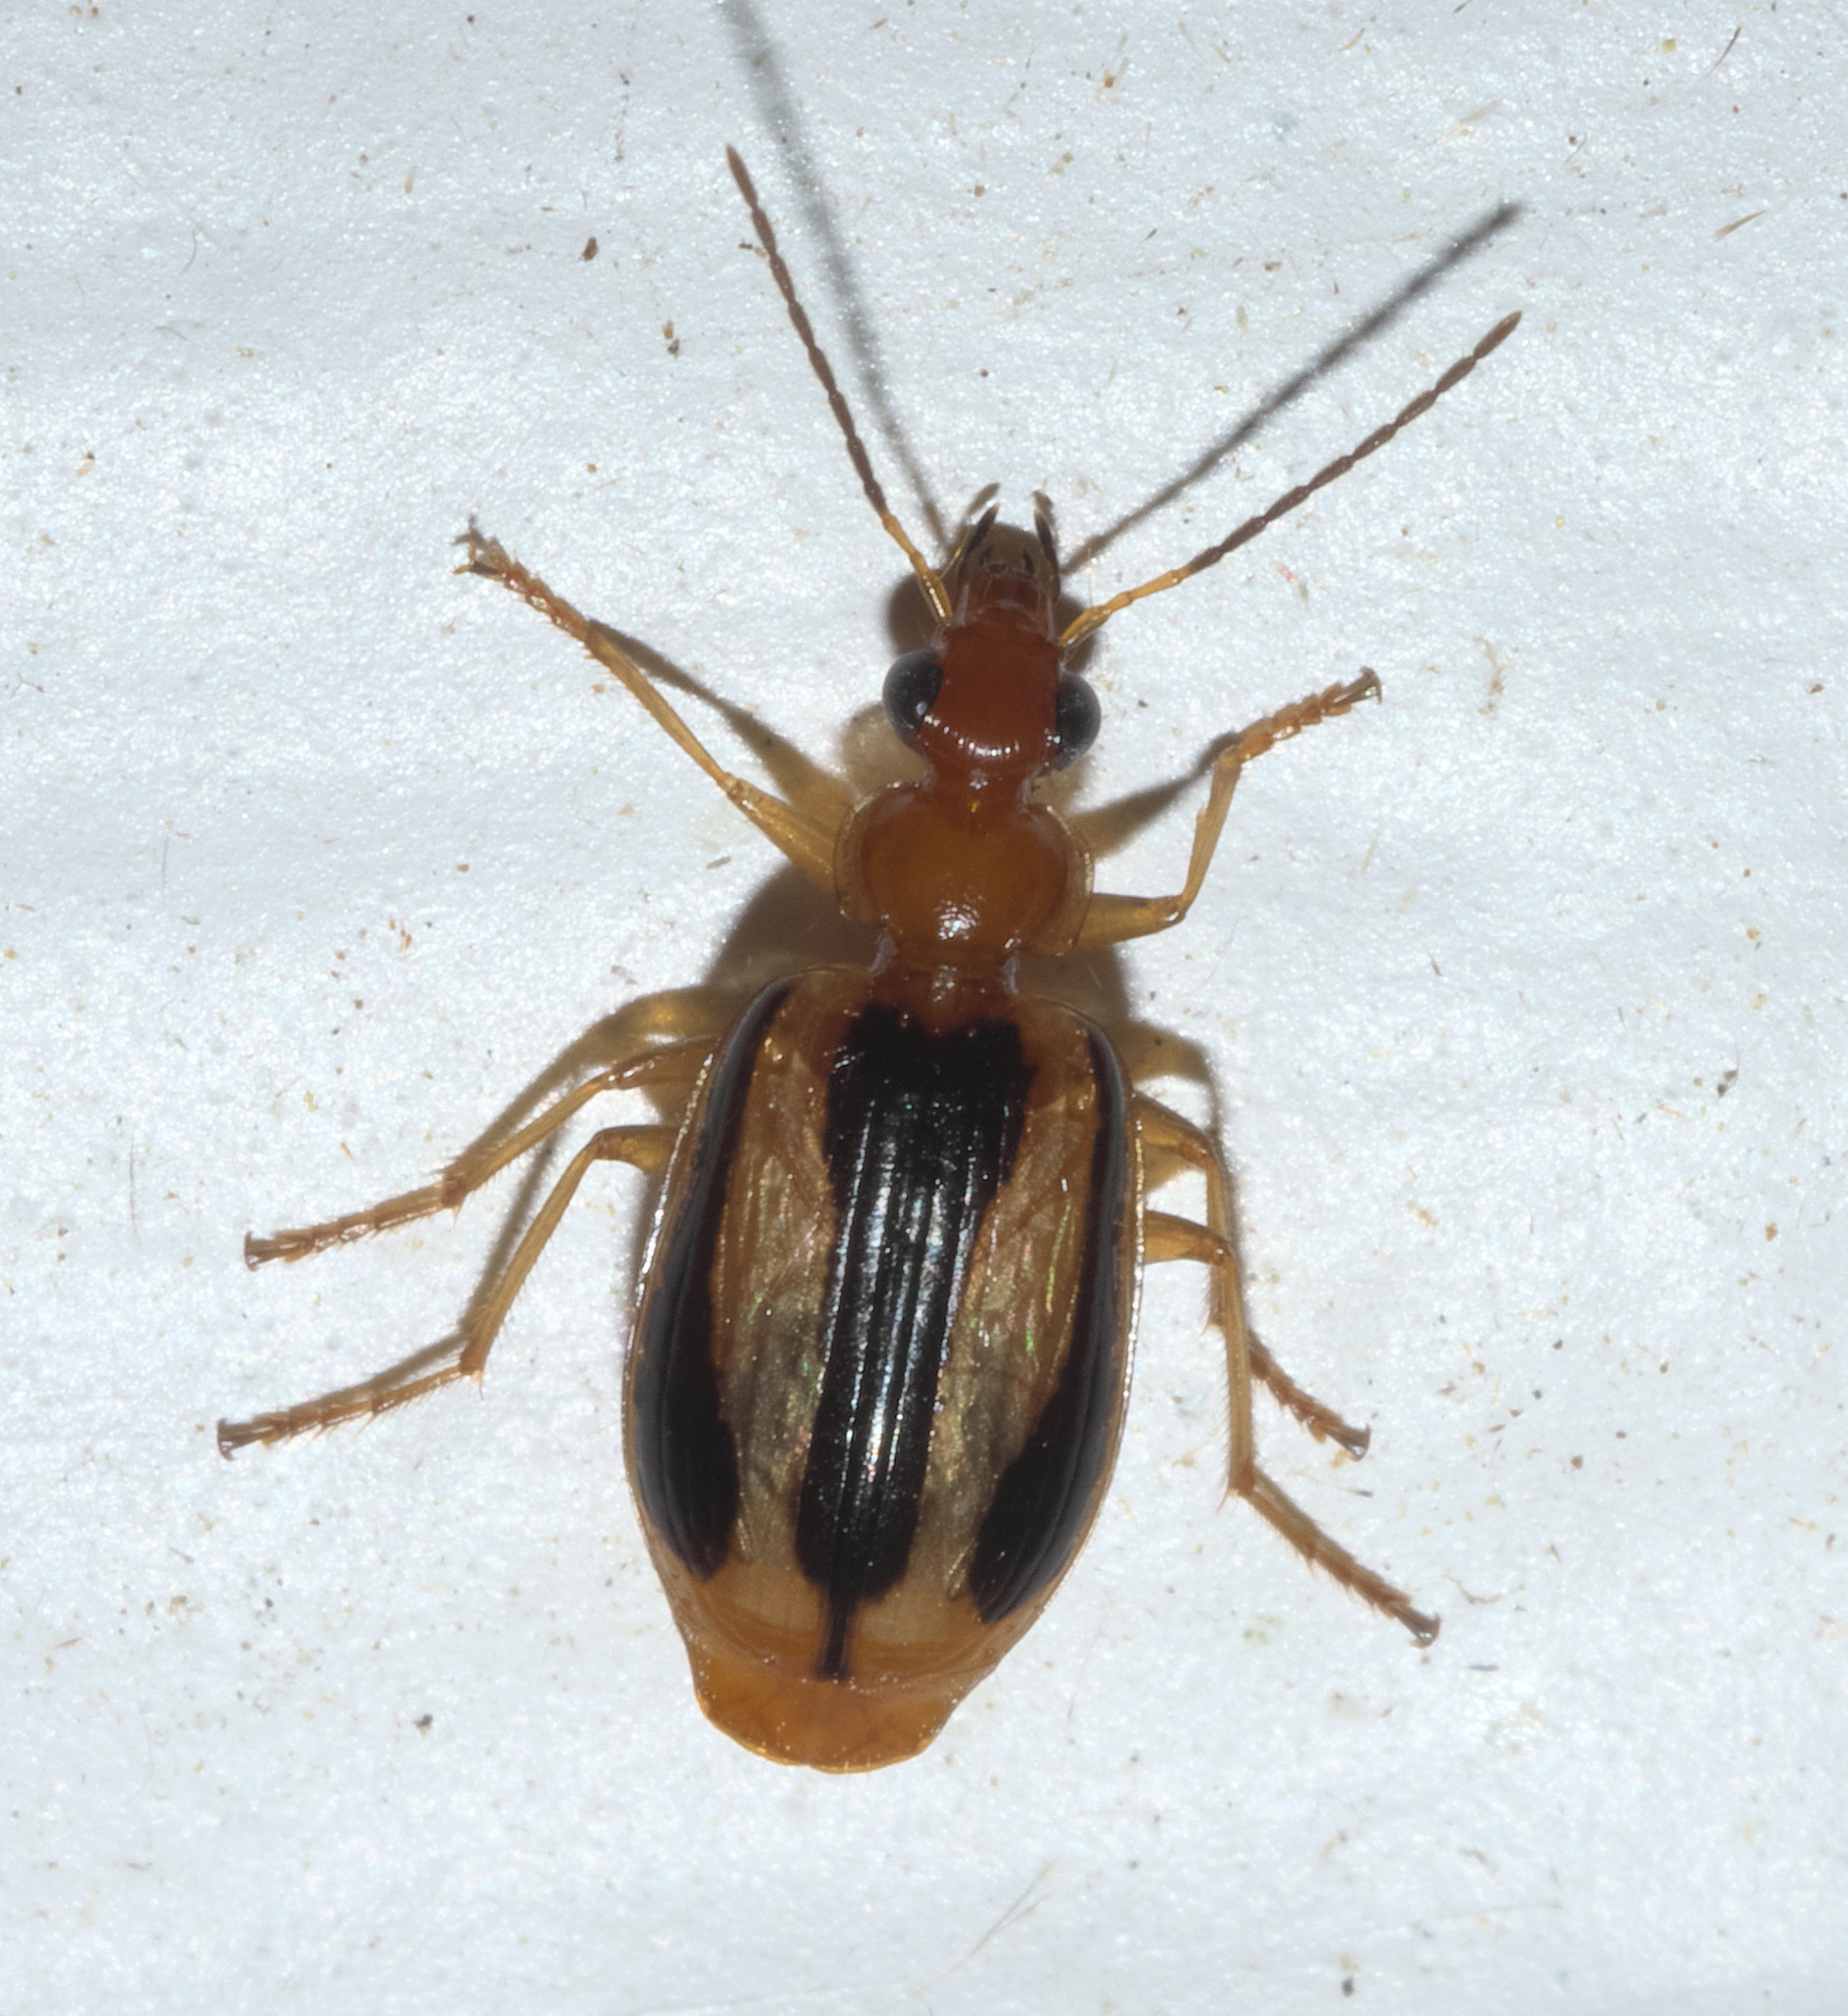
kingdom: Animalia
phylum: Arthropoda
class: Insecta
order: Coleoptera
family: Carabidae
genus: Lebia
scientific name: Lebia solea
